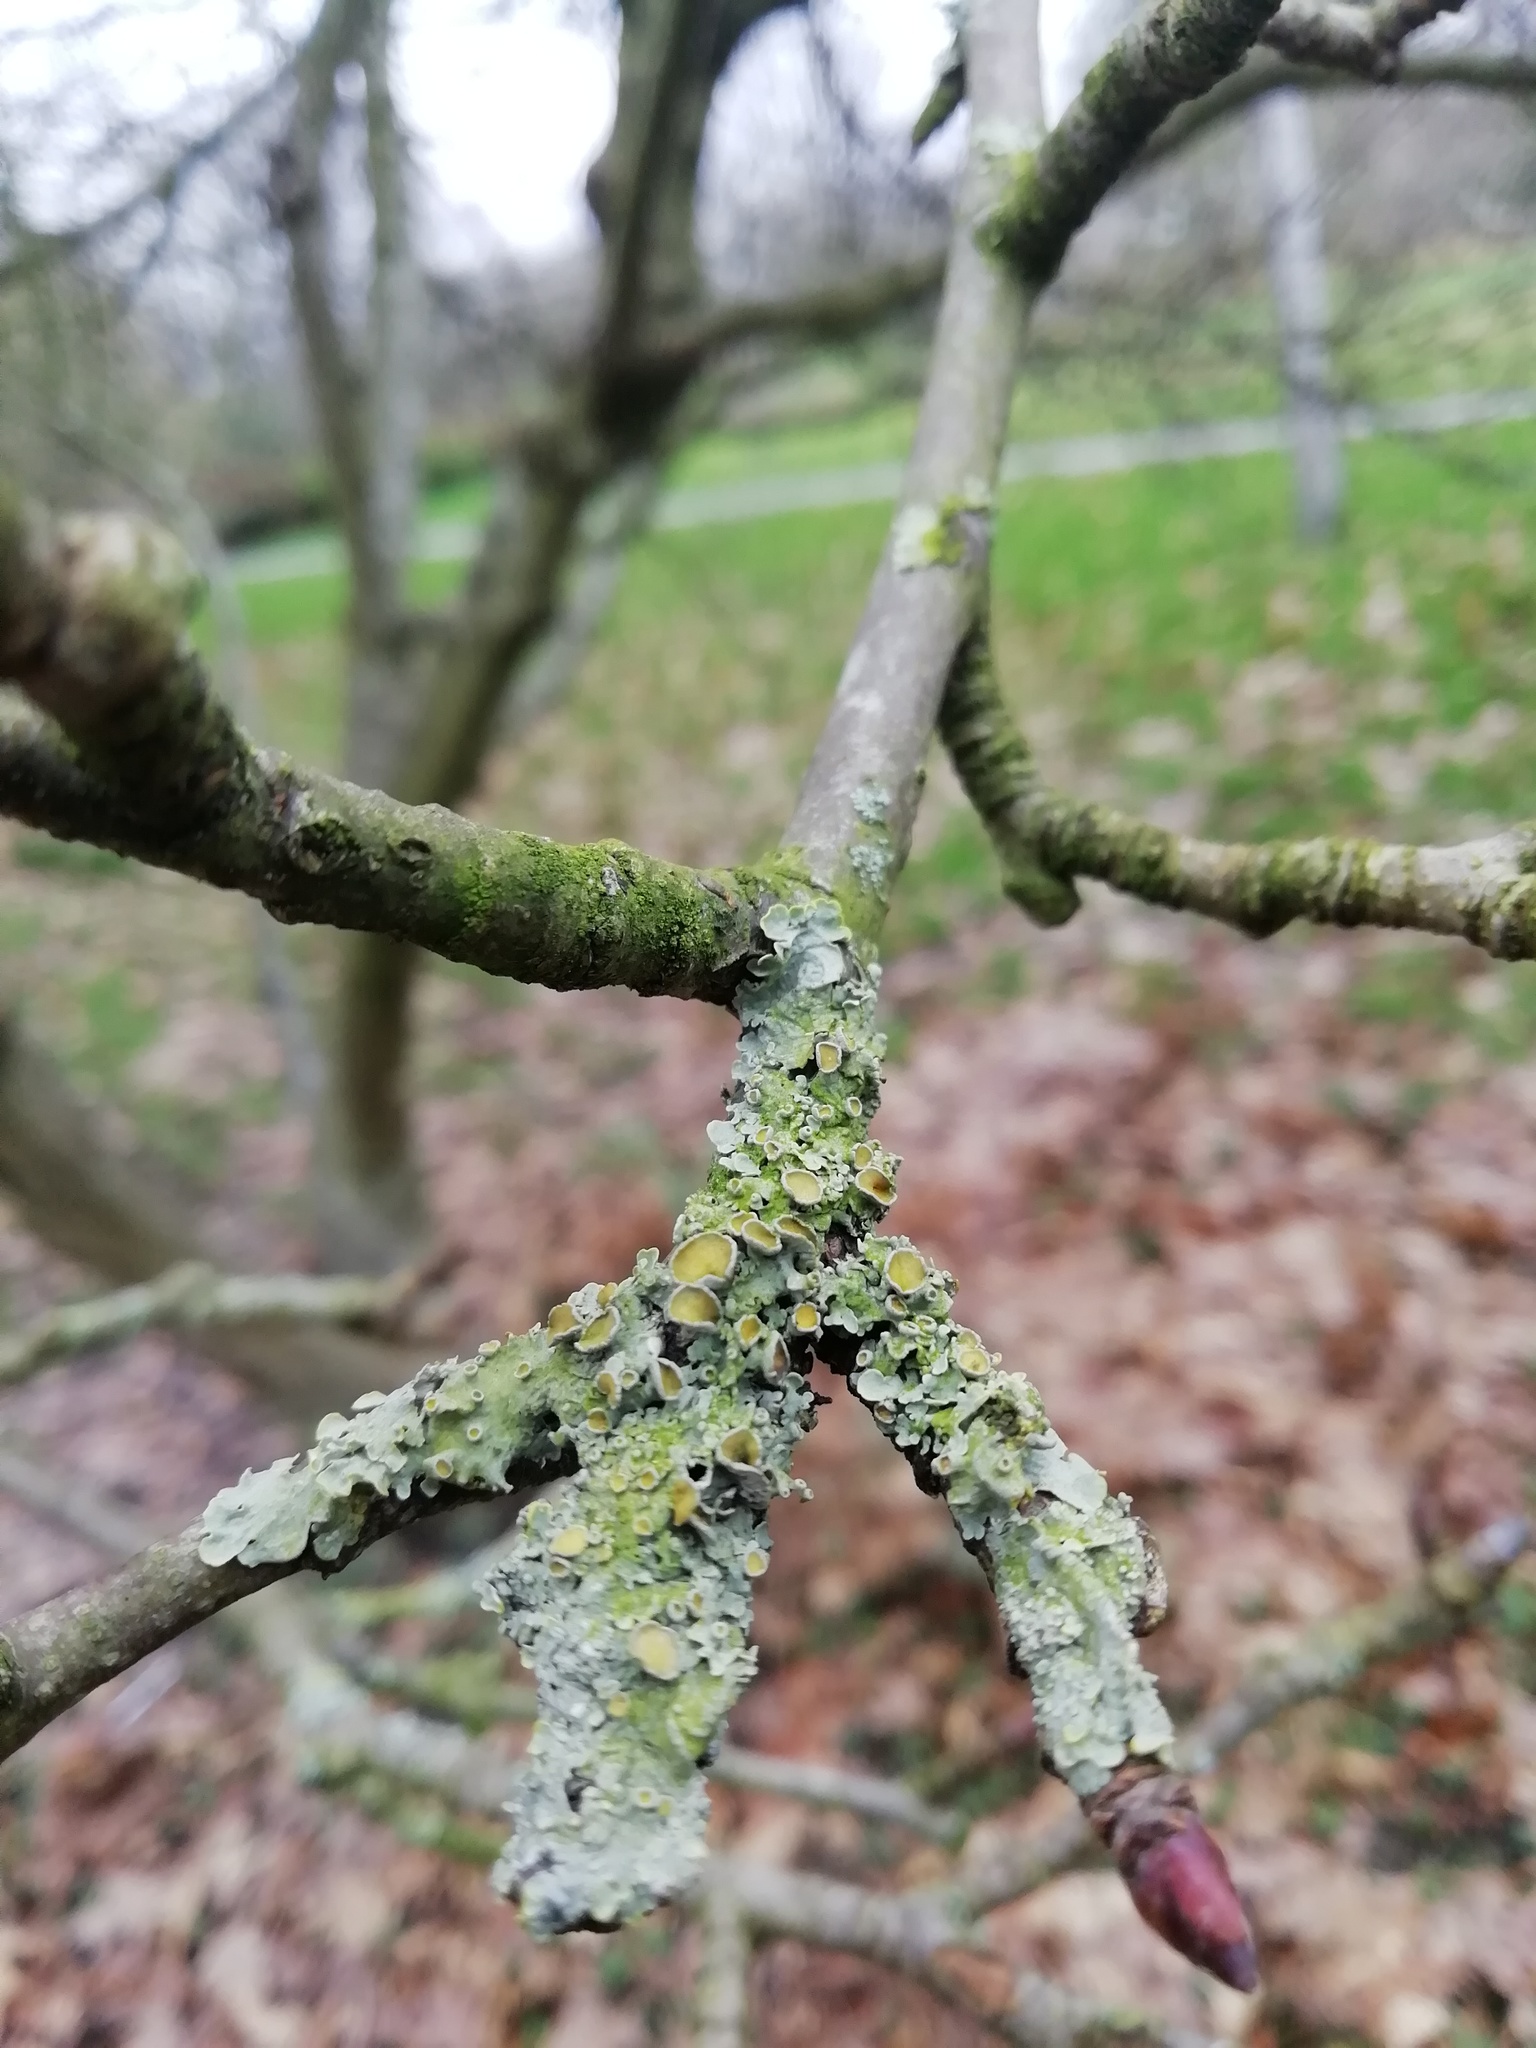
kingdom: Fungi
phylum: Ascomycota
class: Lecanoromycetes
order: Teloschistales
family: Teloschistaceae
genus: Xanthoria
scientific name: Xanthoria parietina
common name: Common orange lichen
